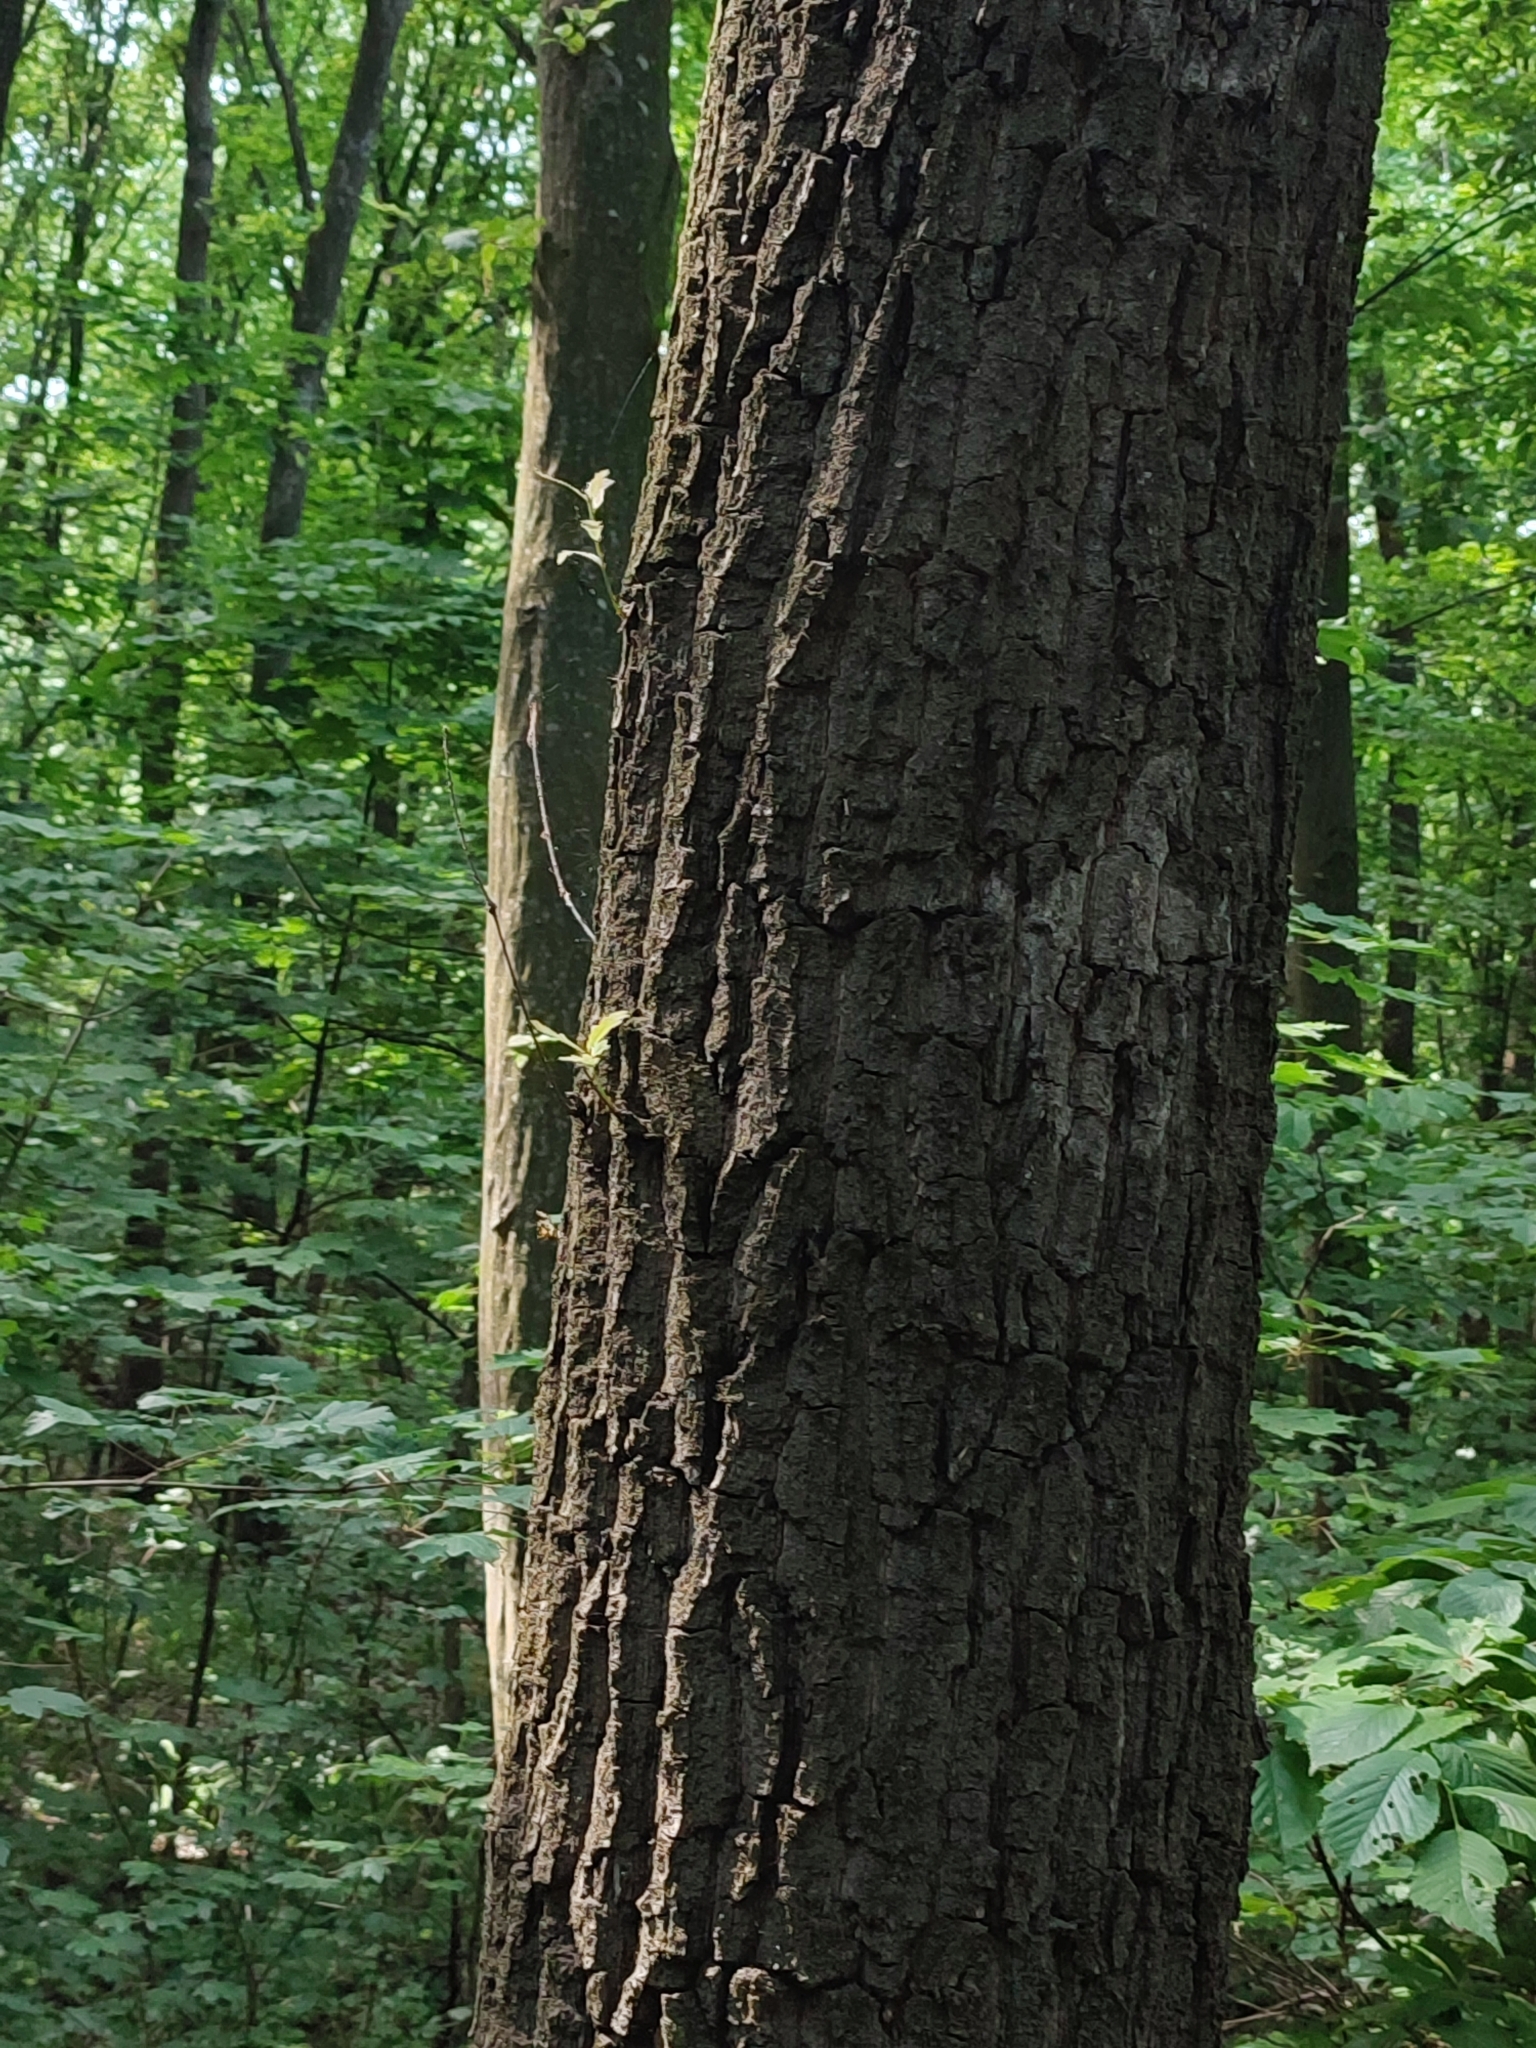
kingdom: Plantae
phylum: Tracheophyta
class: Magnoliopsida
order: Fagales
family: Fagaceae
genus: Quercus
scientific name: Quercus robur
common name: Pedunculate oak
